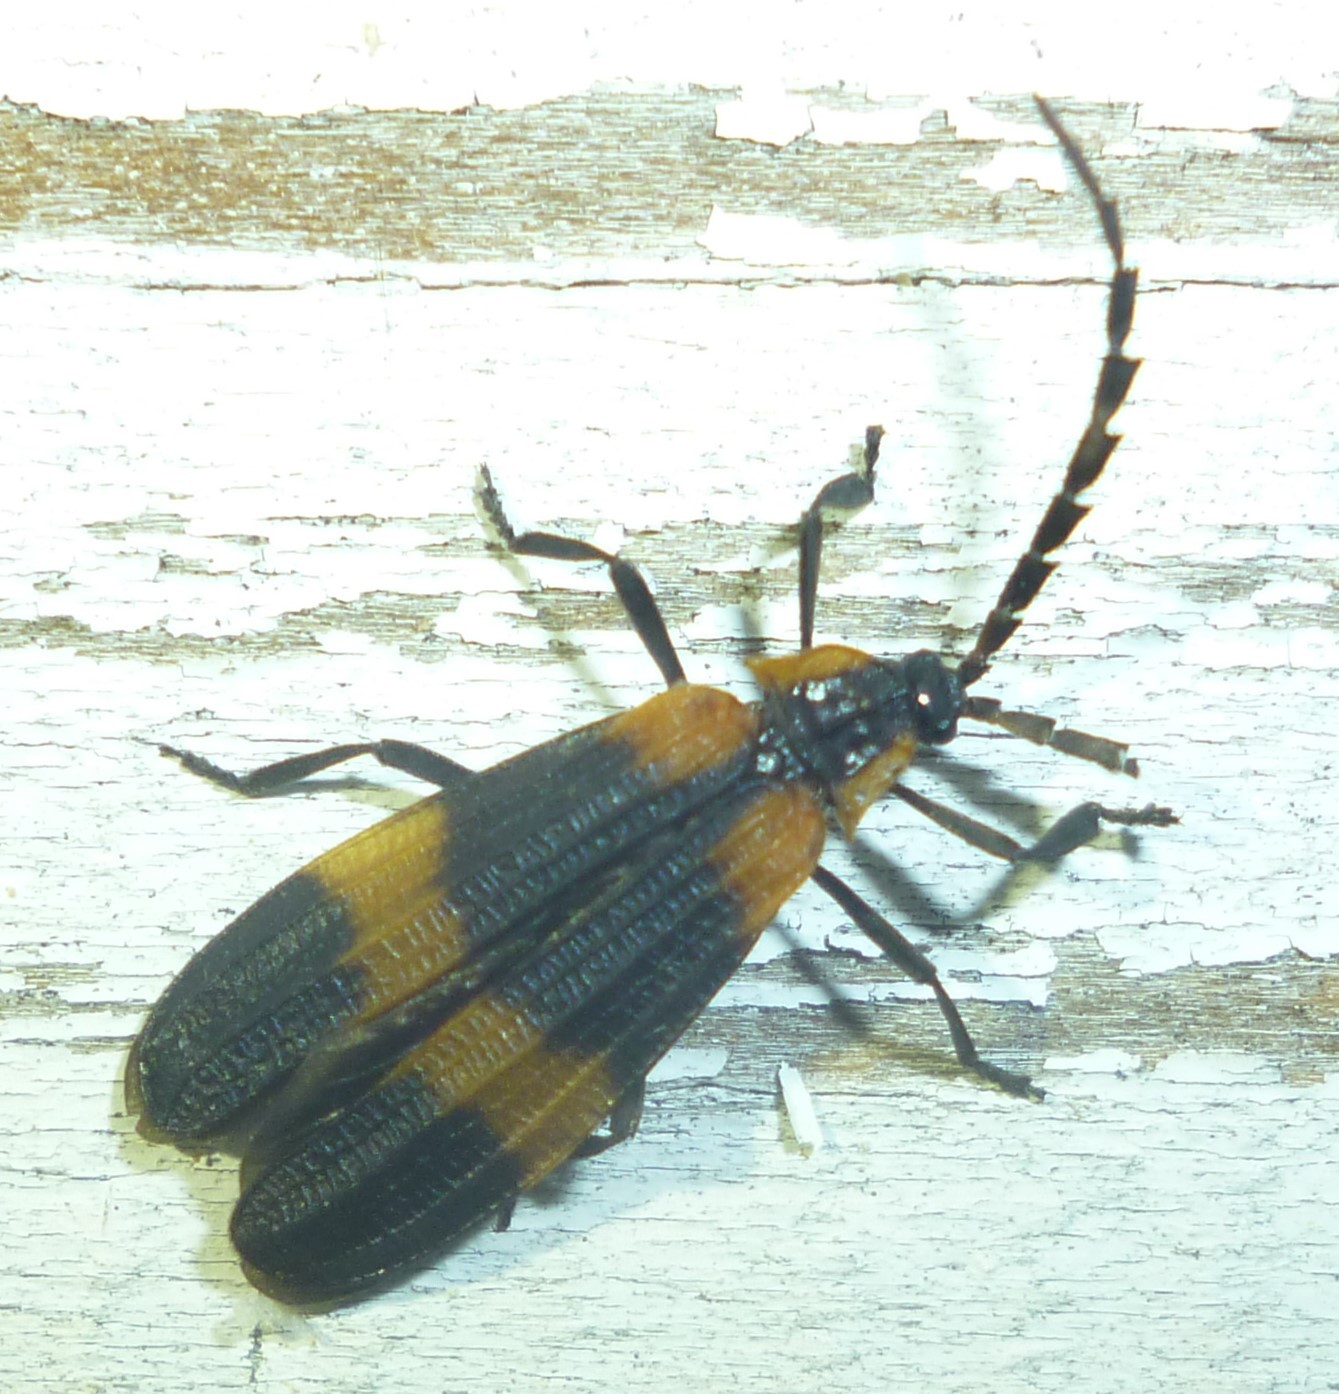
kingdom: Animalia
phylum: Arthropoda
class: Insecta
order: Coleoptera
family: Lycidae
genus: Calopteron
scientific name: Calopteron reticulatum
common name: Banded net-winged beetle
